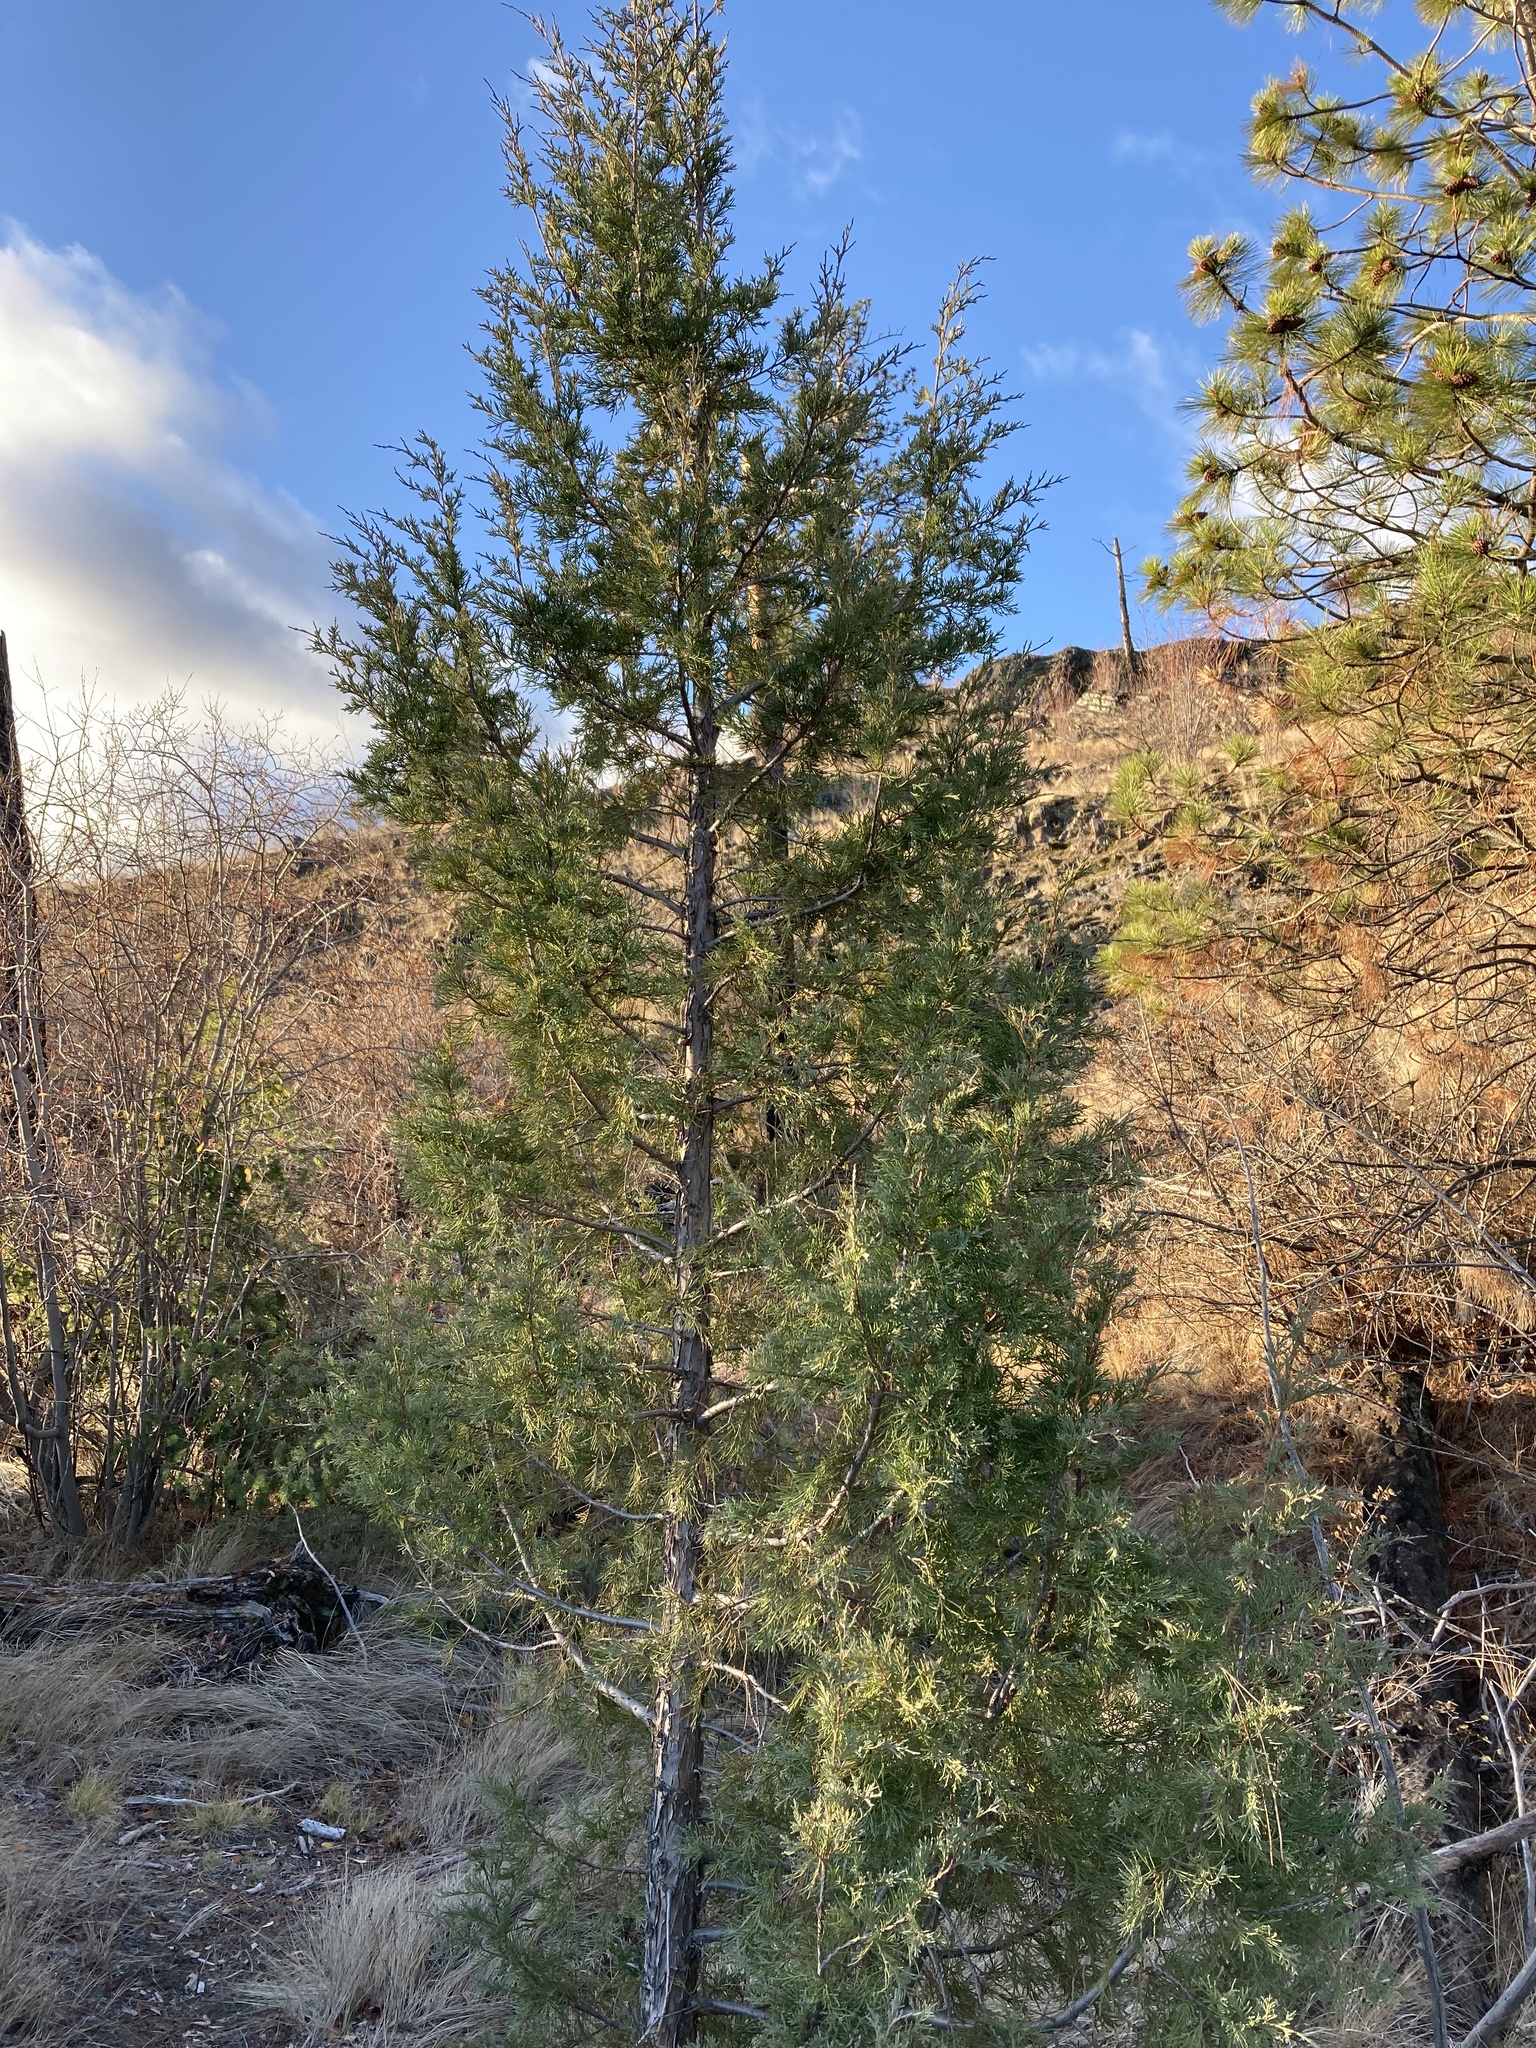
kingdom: Plantae
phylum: Tracheophyta
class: Pinopsida
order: Pinales
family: Cupressaceae
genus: Juniperus
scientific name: Juniperus scopulorum
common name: Rocky mountain juniper
